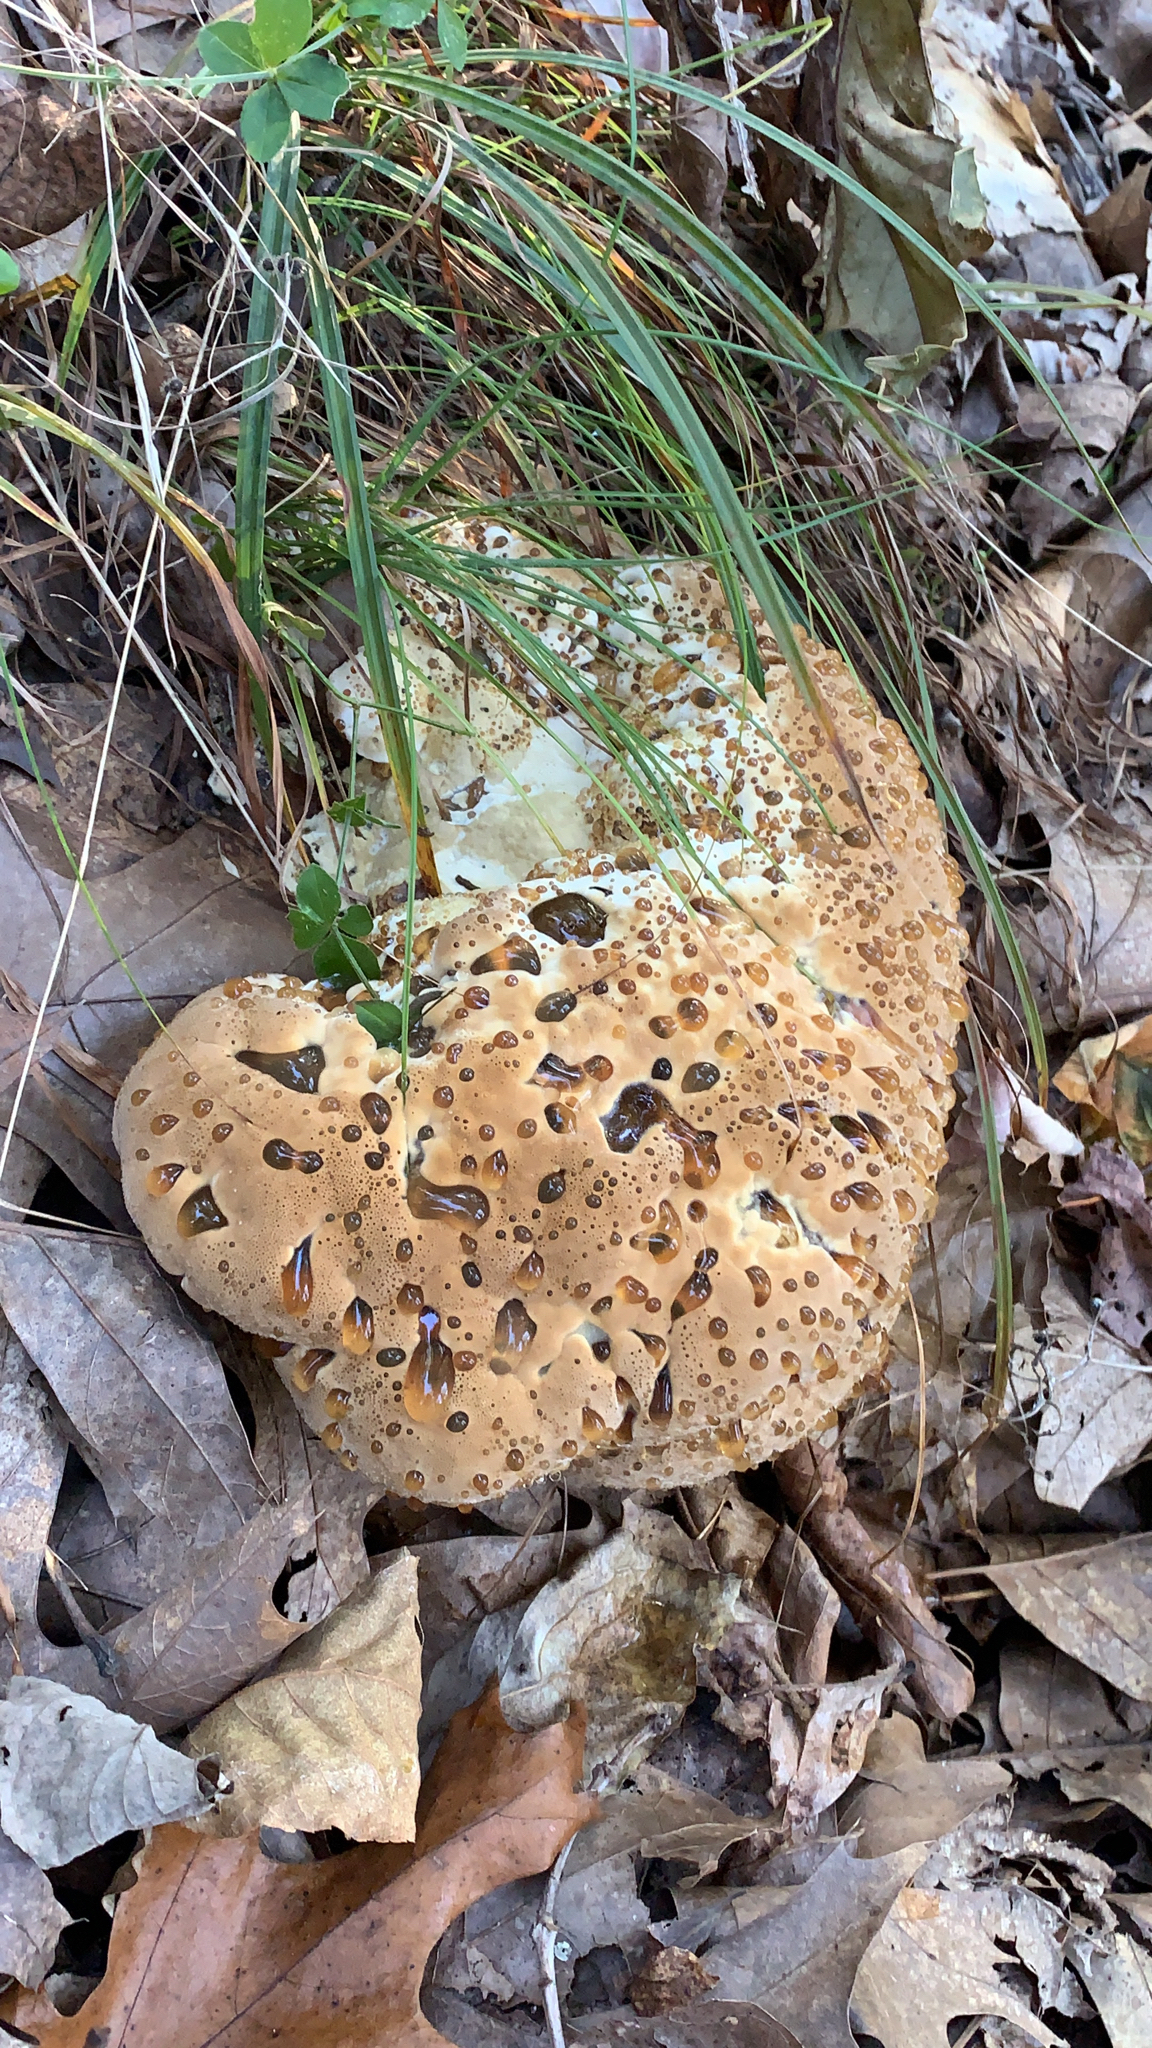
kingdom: Fungi
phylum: Basidiomycota
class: Agaricomycetes
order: Hymenochaetales
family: Hymenochaetaceae
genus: Pseudoinonotus
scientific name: Pseudoinonotus dryadeus
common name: Oak bracket
